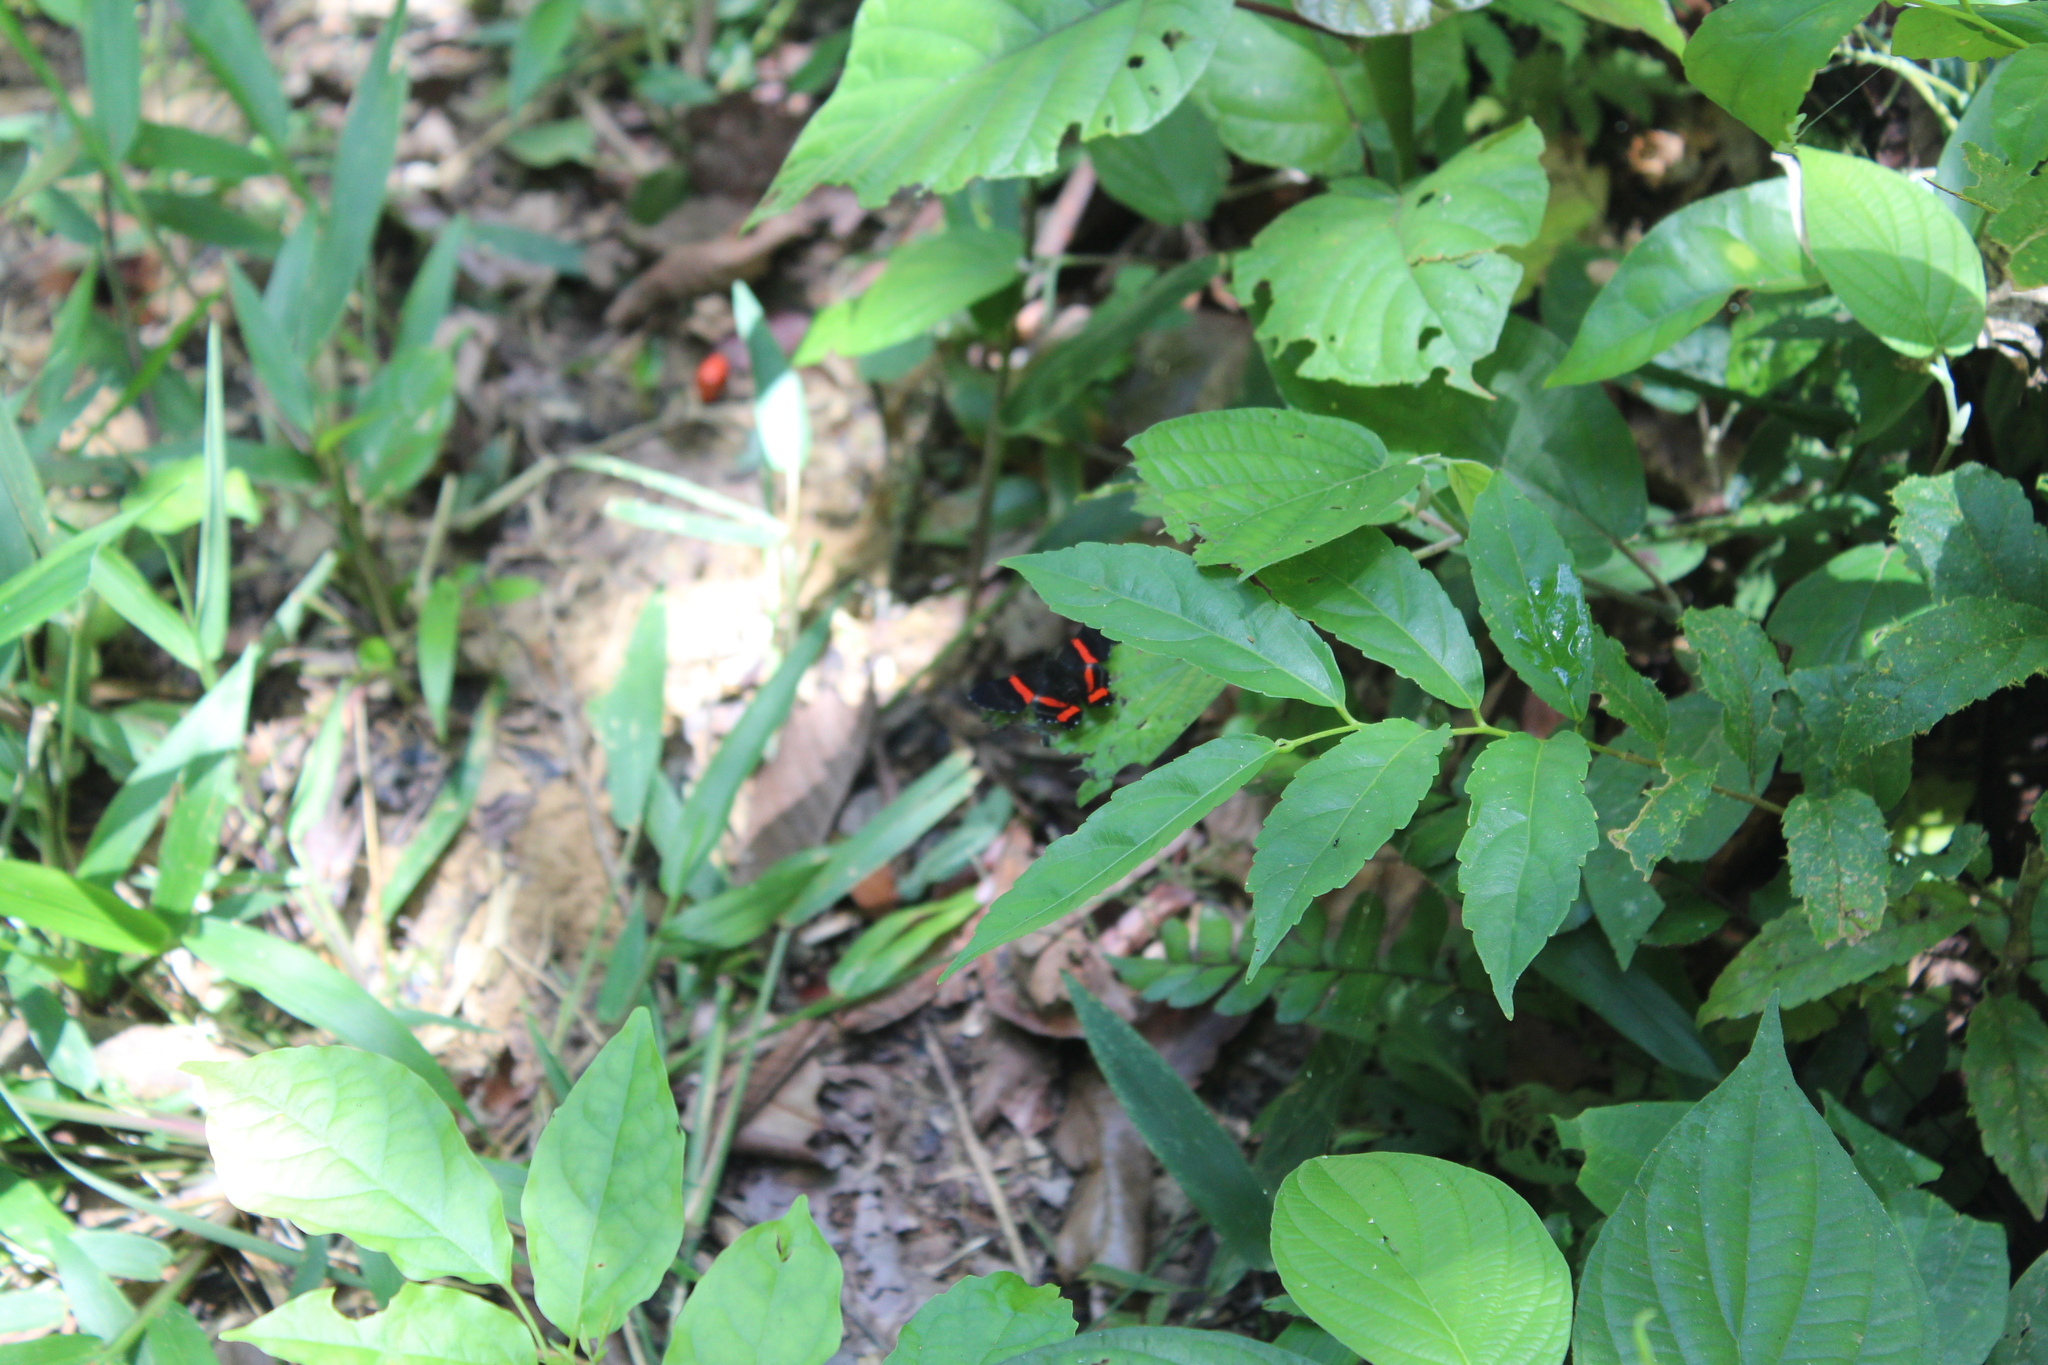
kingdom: Animalia
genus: Ancyluris
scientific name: Ancyluris colubra
